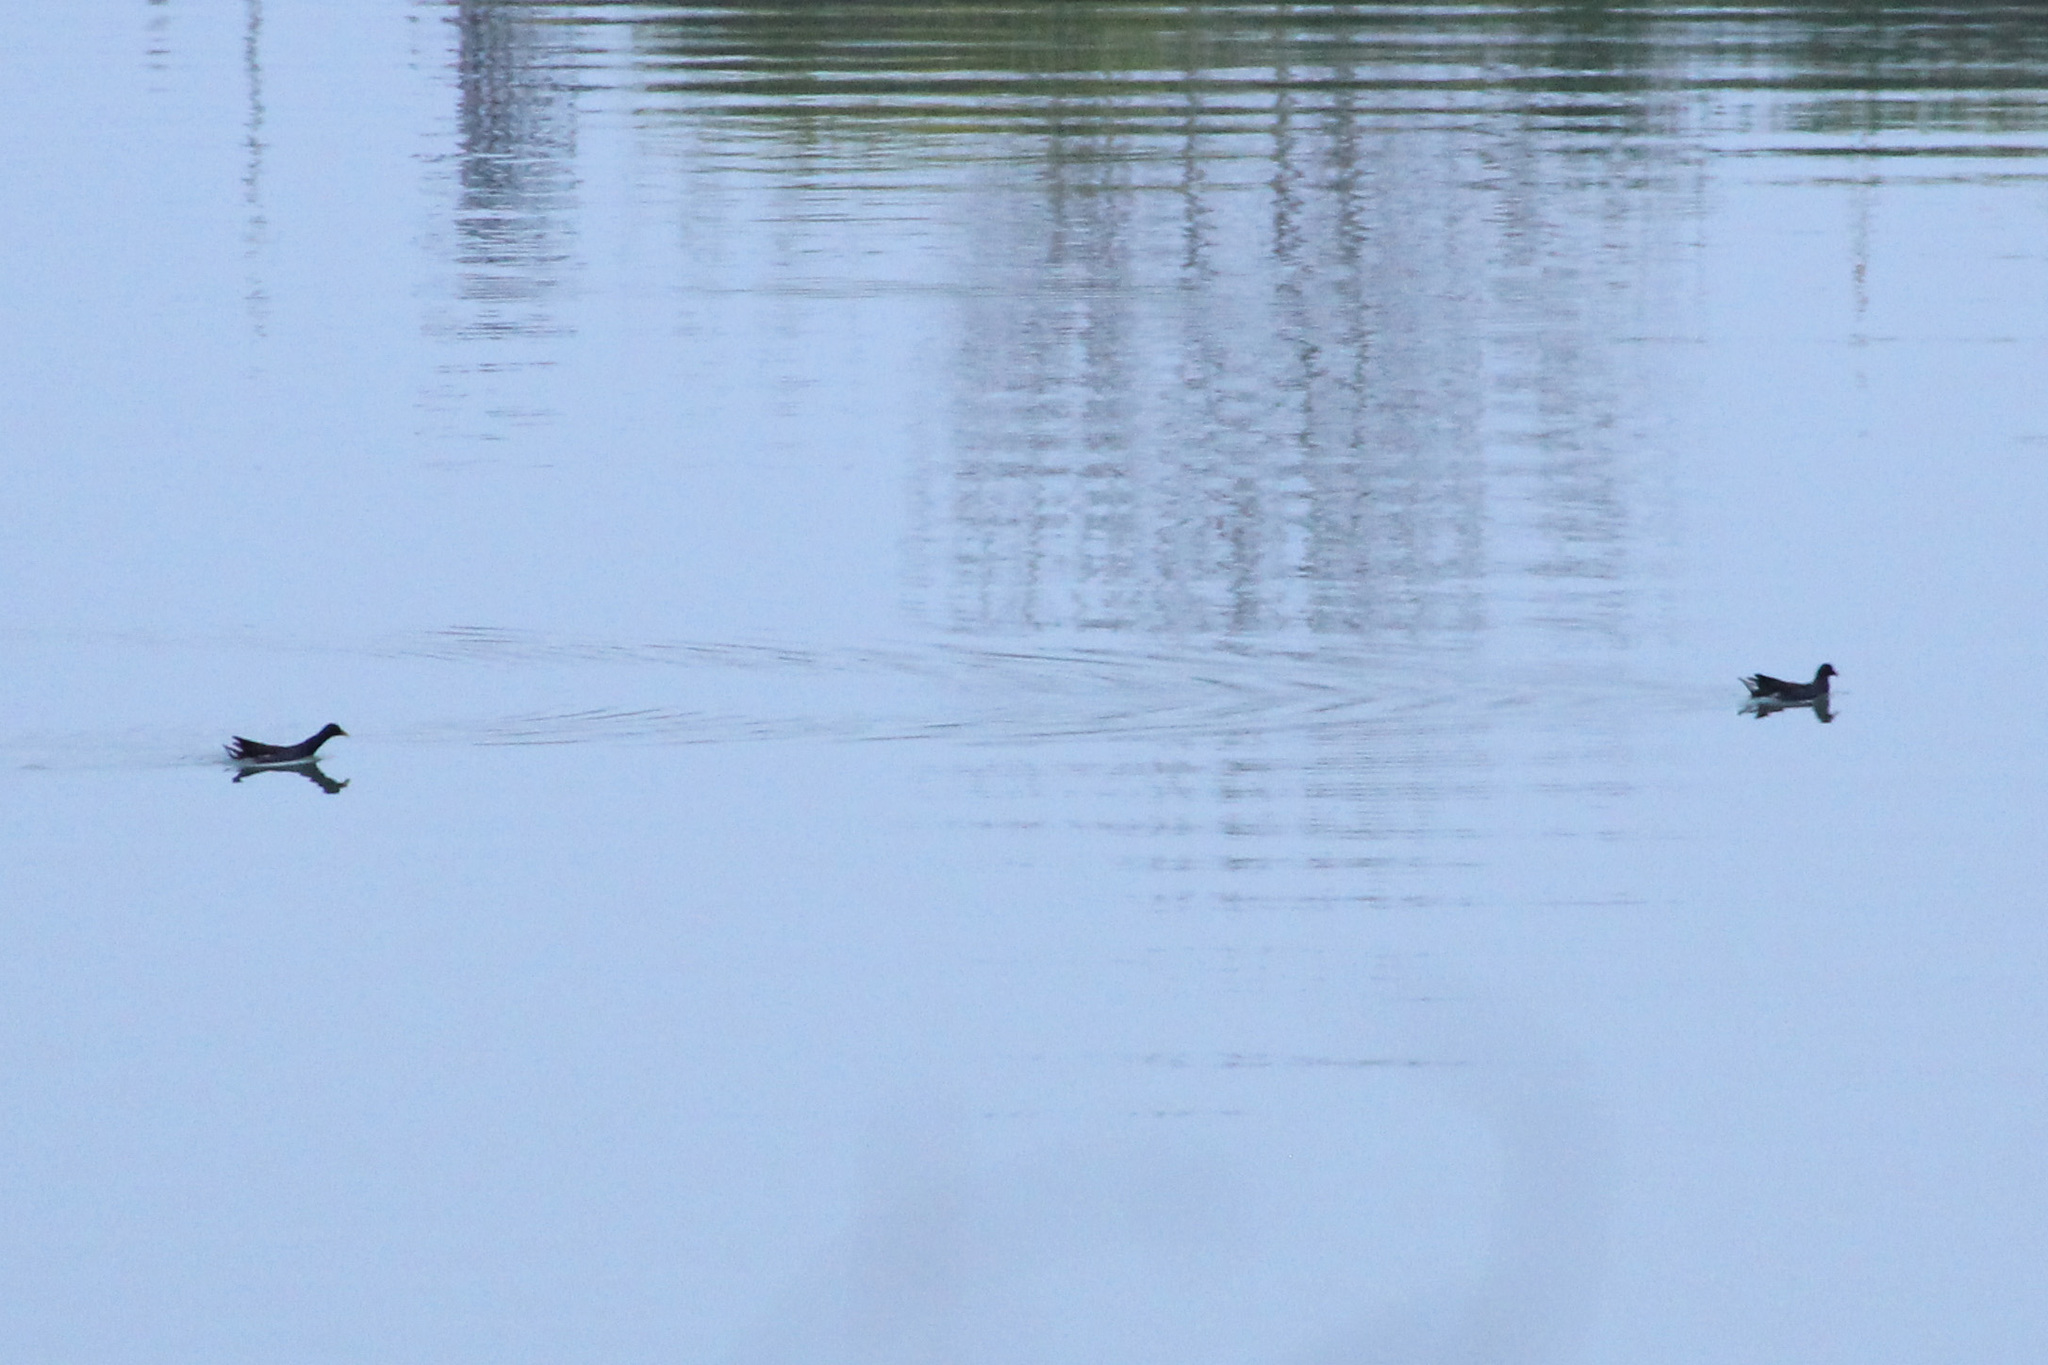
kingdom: Animalia
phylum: Chordata
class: Aves
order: Gruiformes
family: Rallidae
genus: Gallinula
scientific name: Gallinula chloropus
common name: Common moorhen
